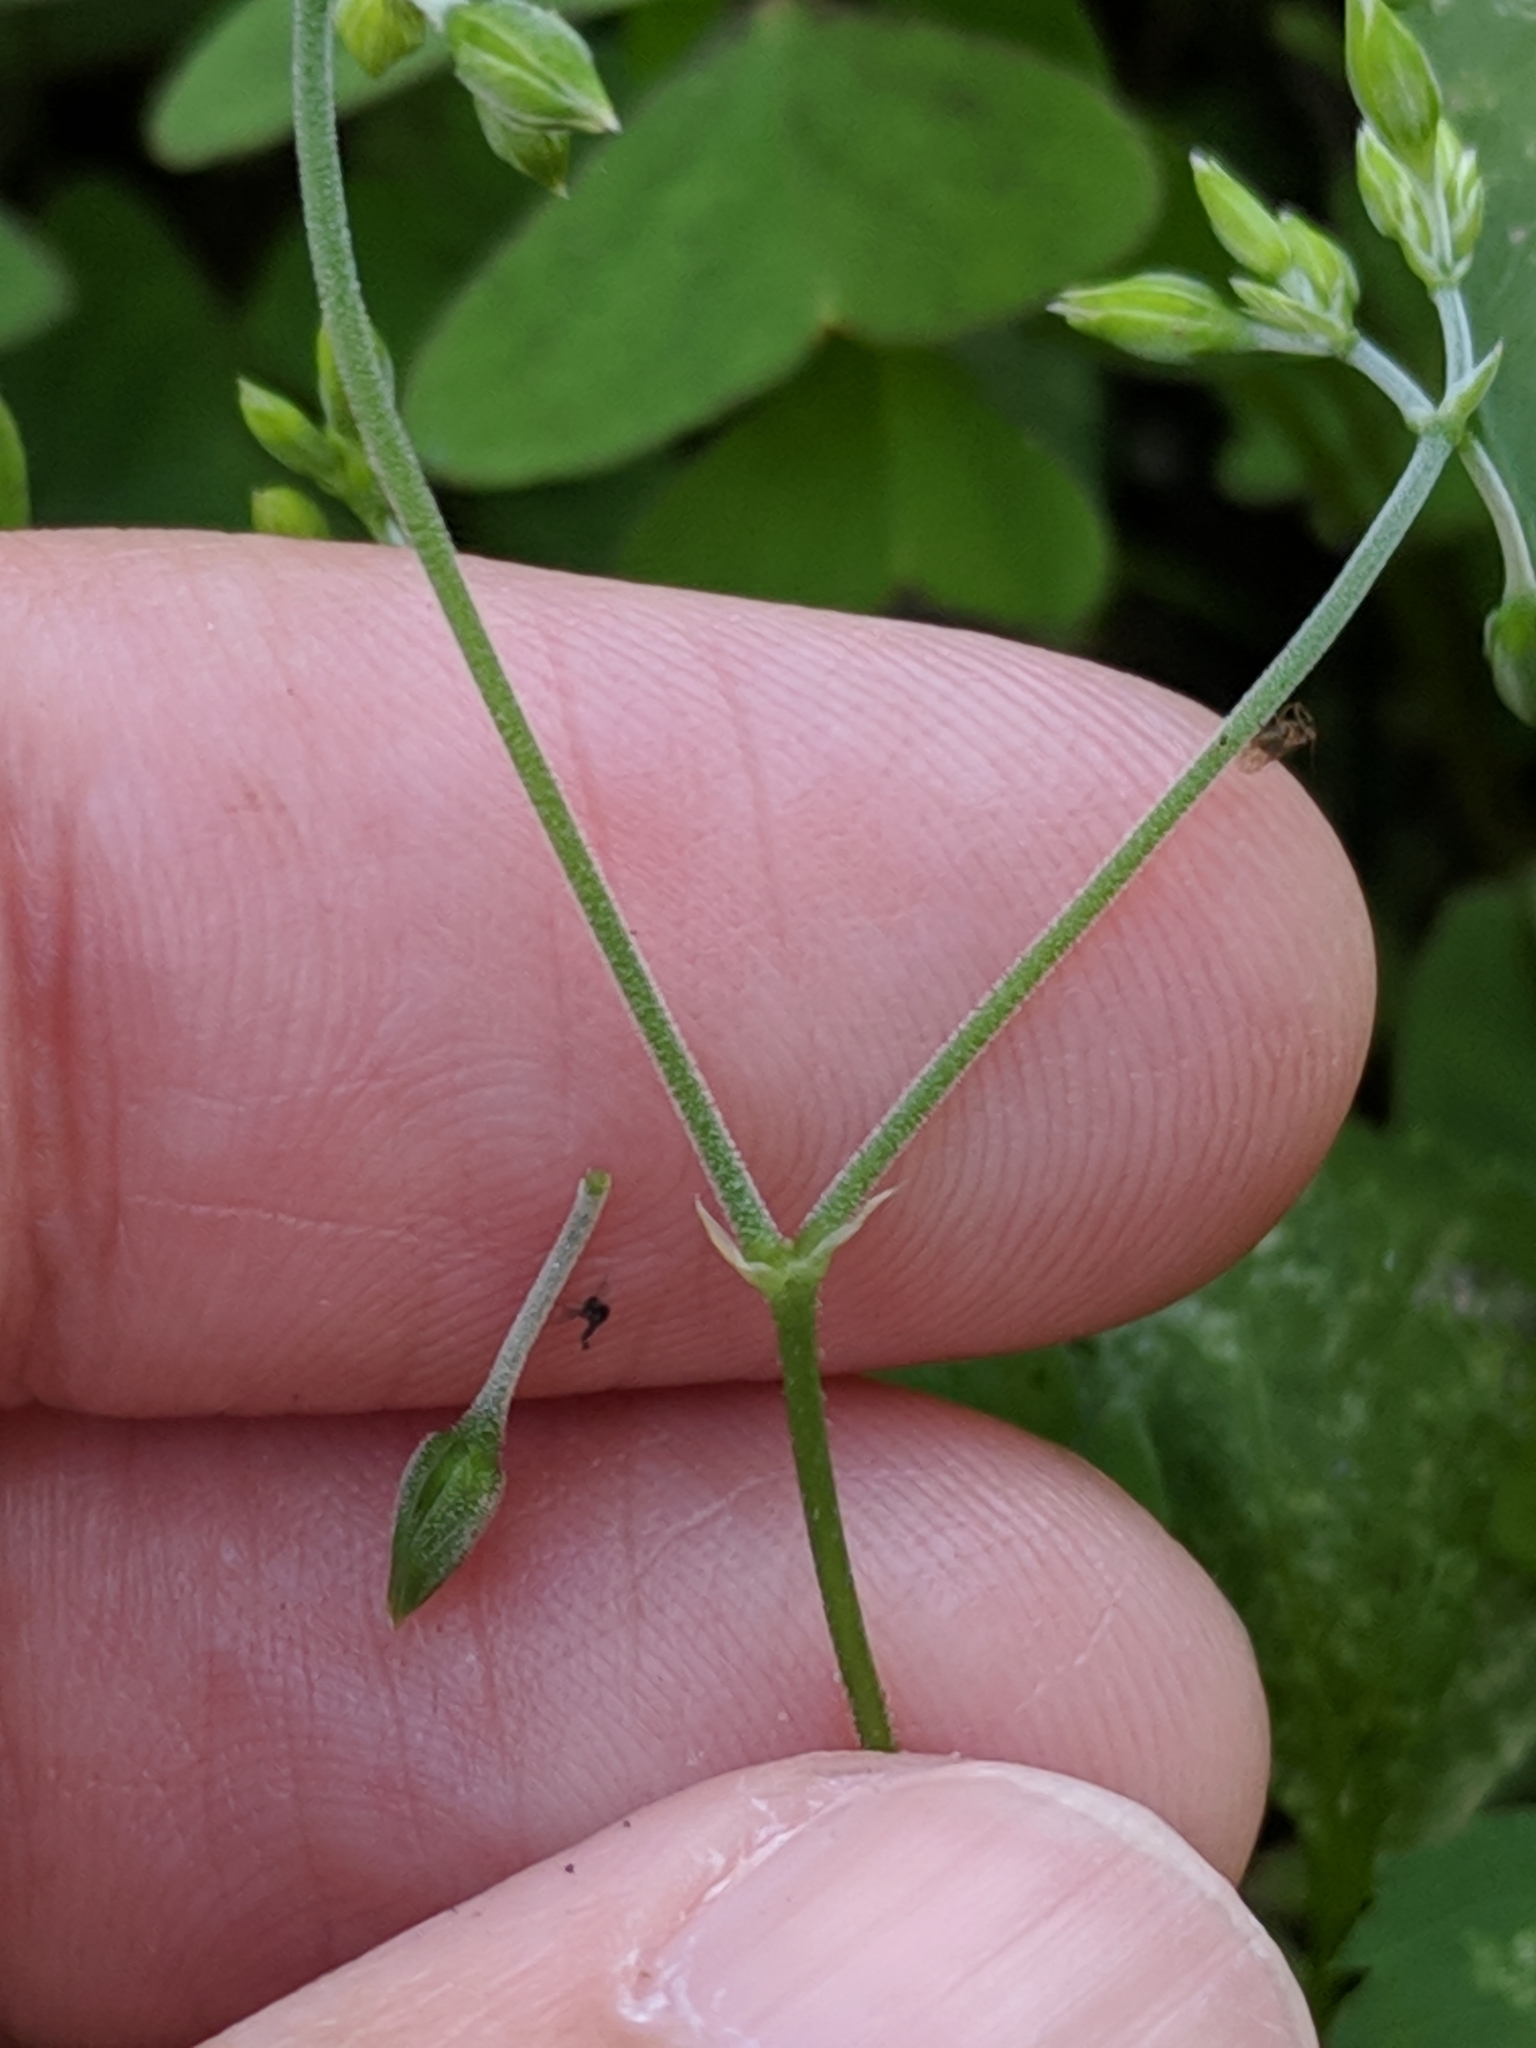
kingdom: Plantae
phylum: Tracheophyta
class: Magnoliopsida
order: Caryophyllales
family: Caryophyllaceae
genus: Drymaria
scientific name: Drymaria cordata
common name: Whitesnow
